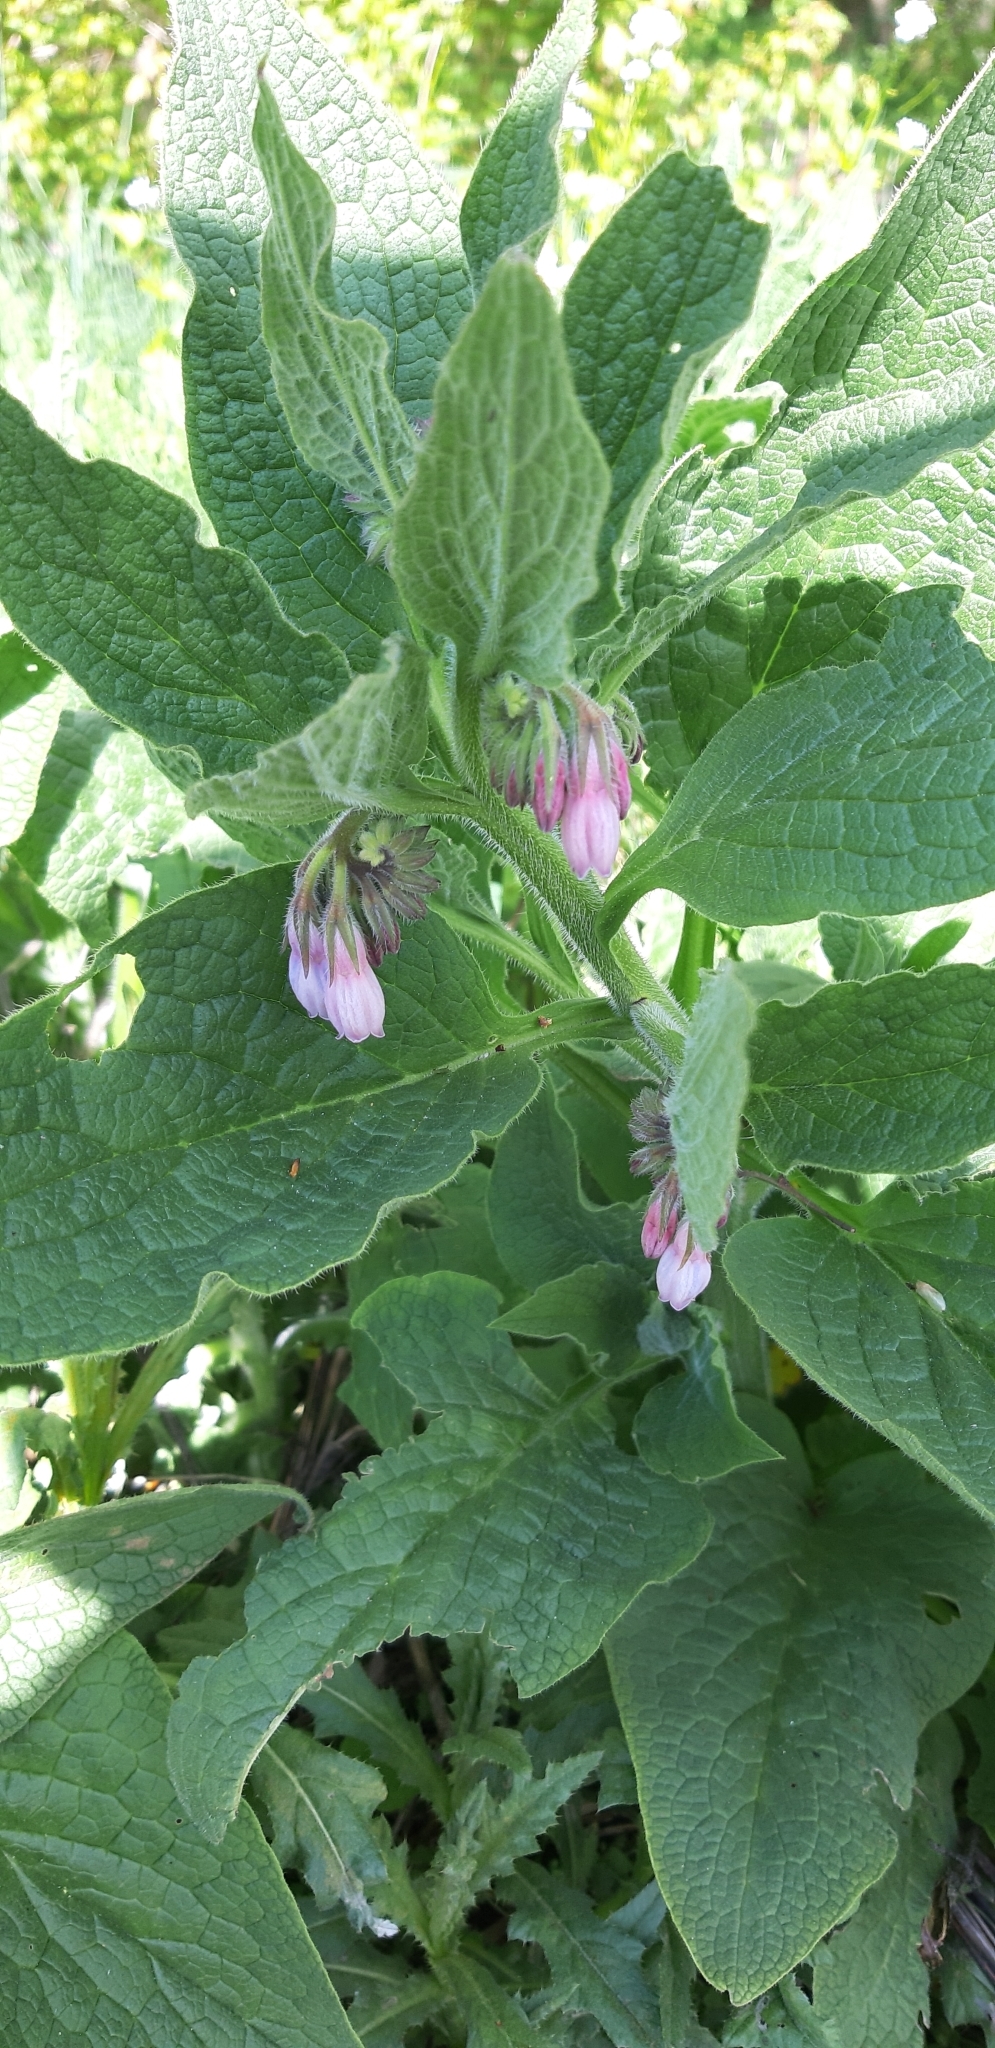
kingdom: Plantae
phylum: Tracheophyta
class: Magnoliopsida
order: Boraginales
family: Boraginaceae
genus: Symphytum
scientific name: Symphytum uplandicum
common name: Russian comfrey
